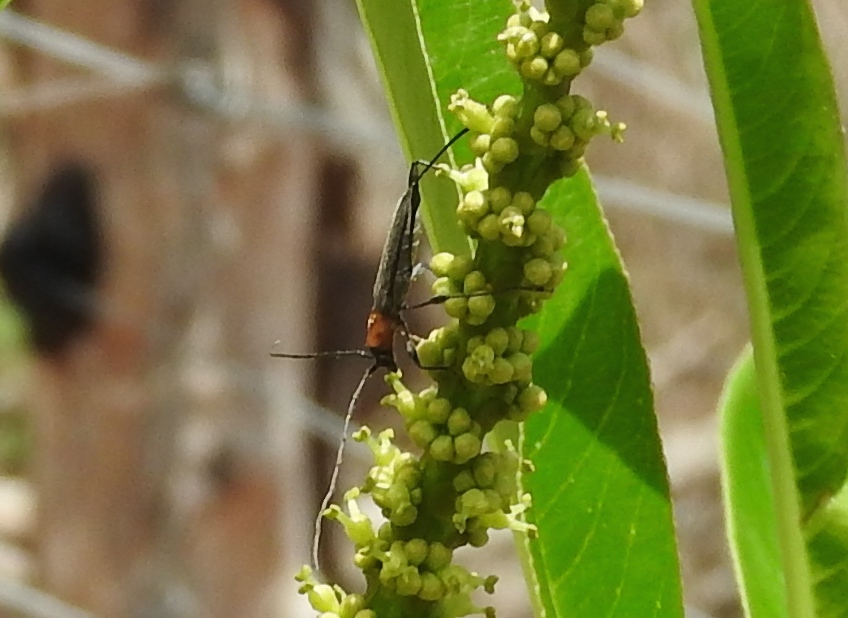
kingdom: Animalia
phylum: Arthropoda
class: Insecta
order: Coleoptera
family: Cerambycidae
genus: Rhopalophora
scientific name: Rhopalophora
